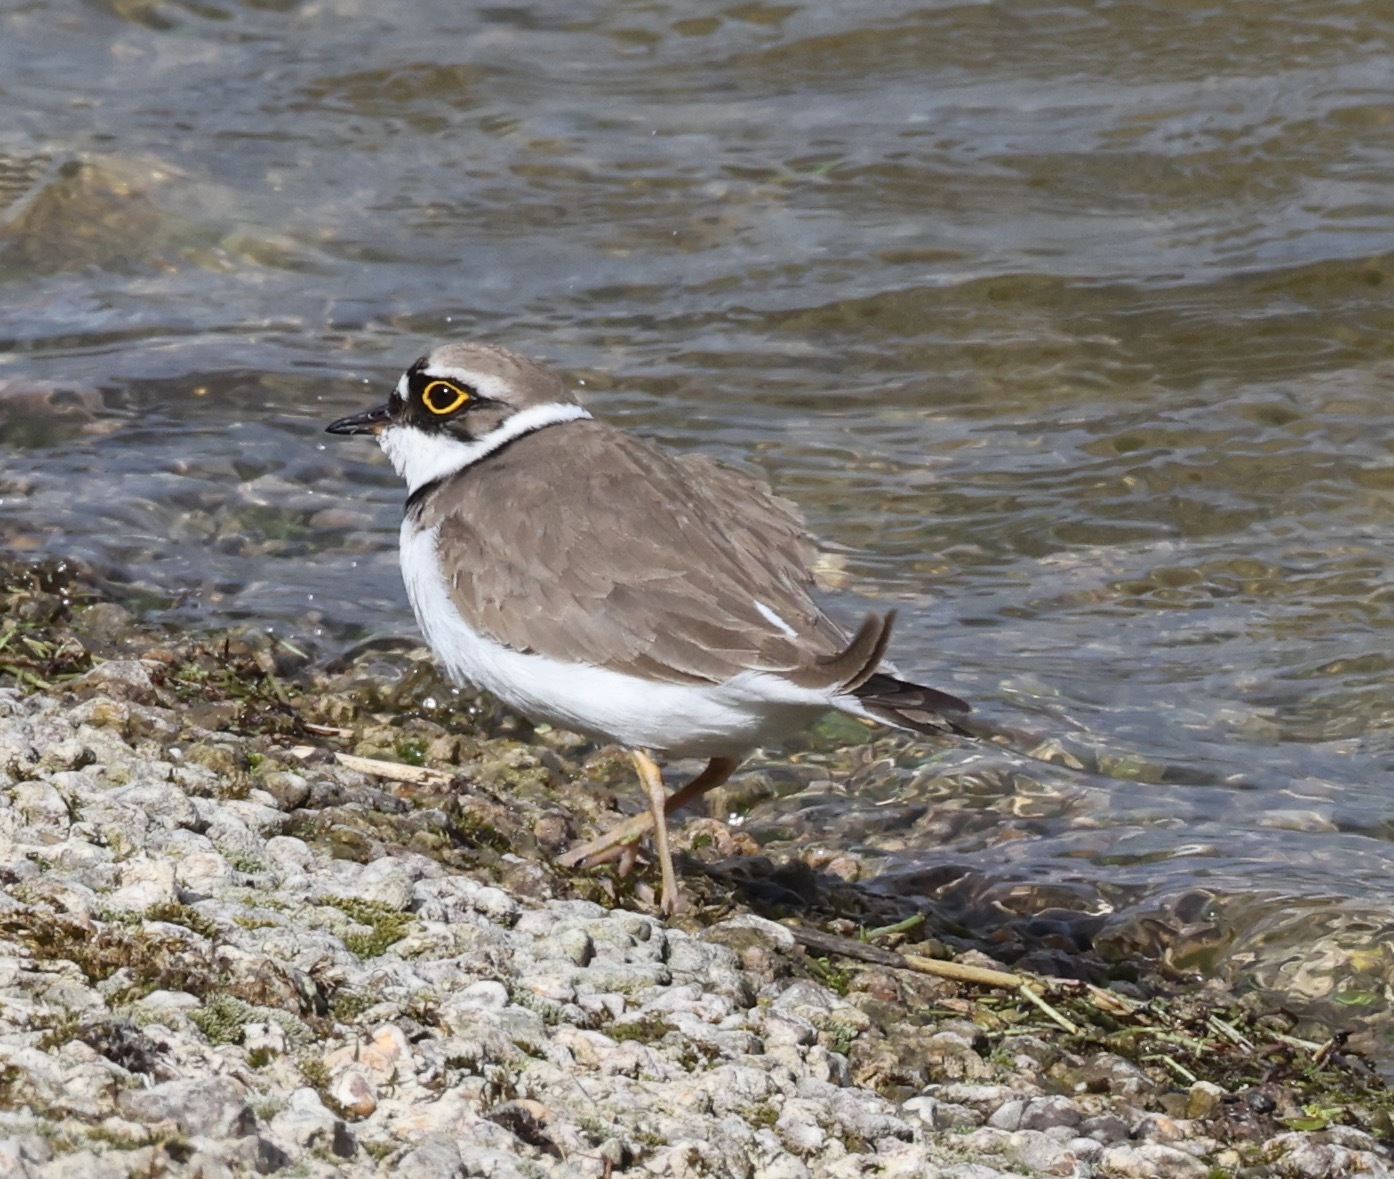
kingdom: Animalia
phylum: Chordata
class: Aves
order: Charadriiformes
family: Charadriidae
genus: Charadrius
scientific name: Charadrius dubius
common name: Little ringed plover
